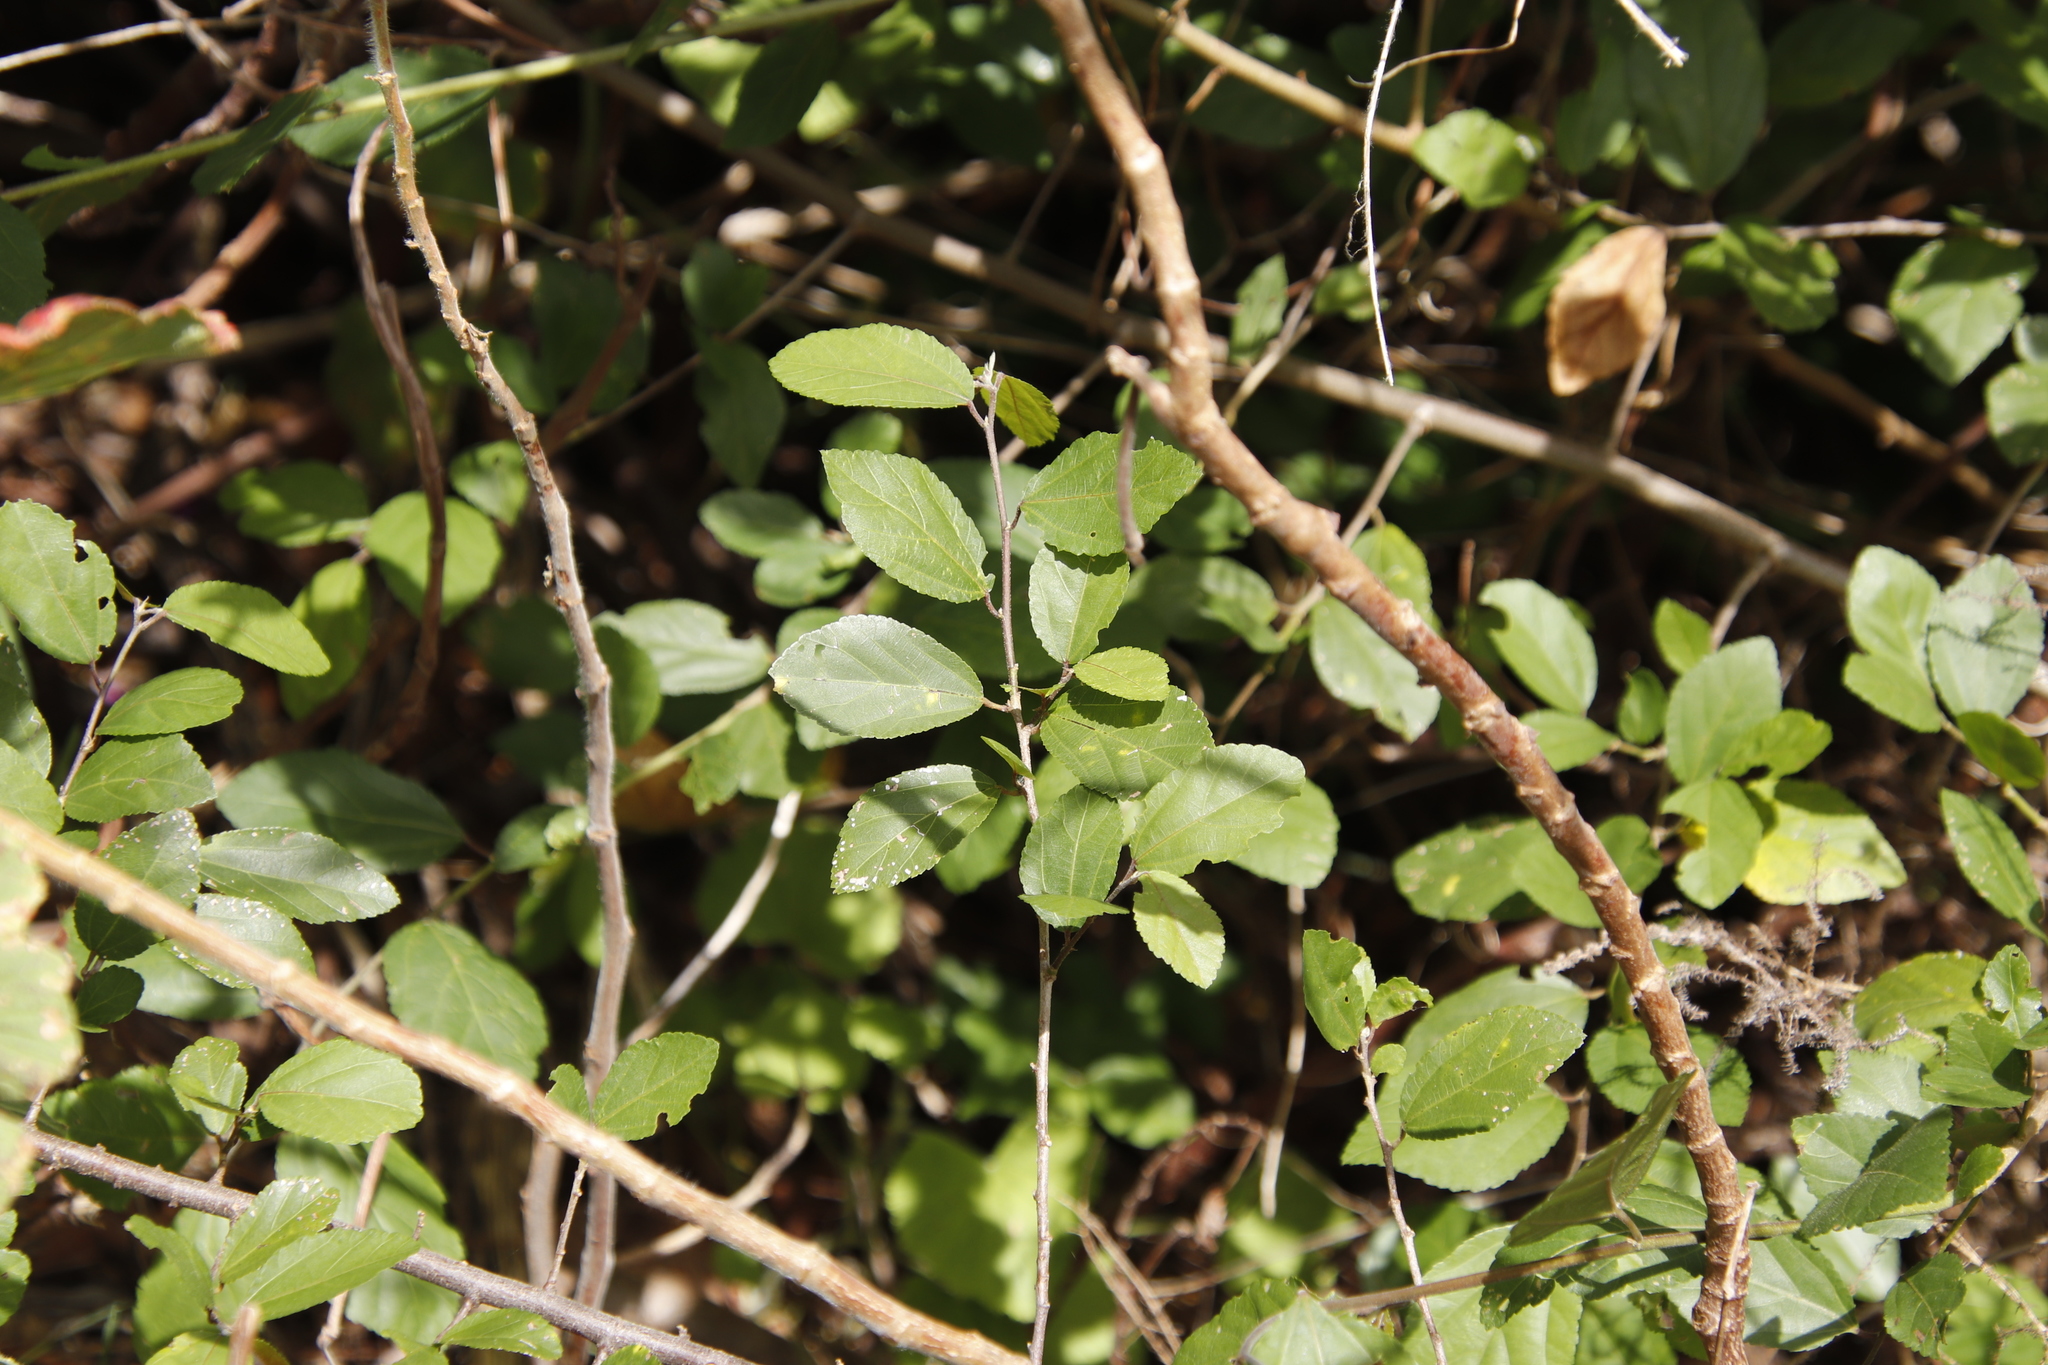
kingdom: Plantae
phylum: Tracheophyta
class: Magnoliopsida
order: Malvales
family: Malvaceae
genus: Grewia
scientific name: Grewia occidentalis
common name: Crossberry
